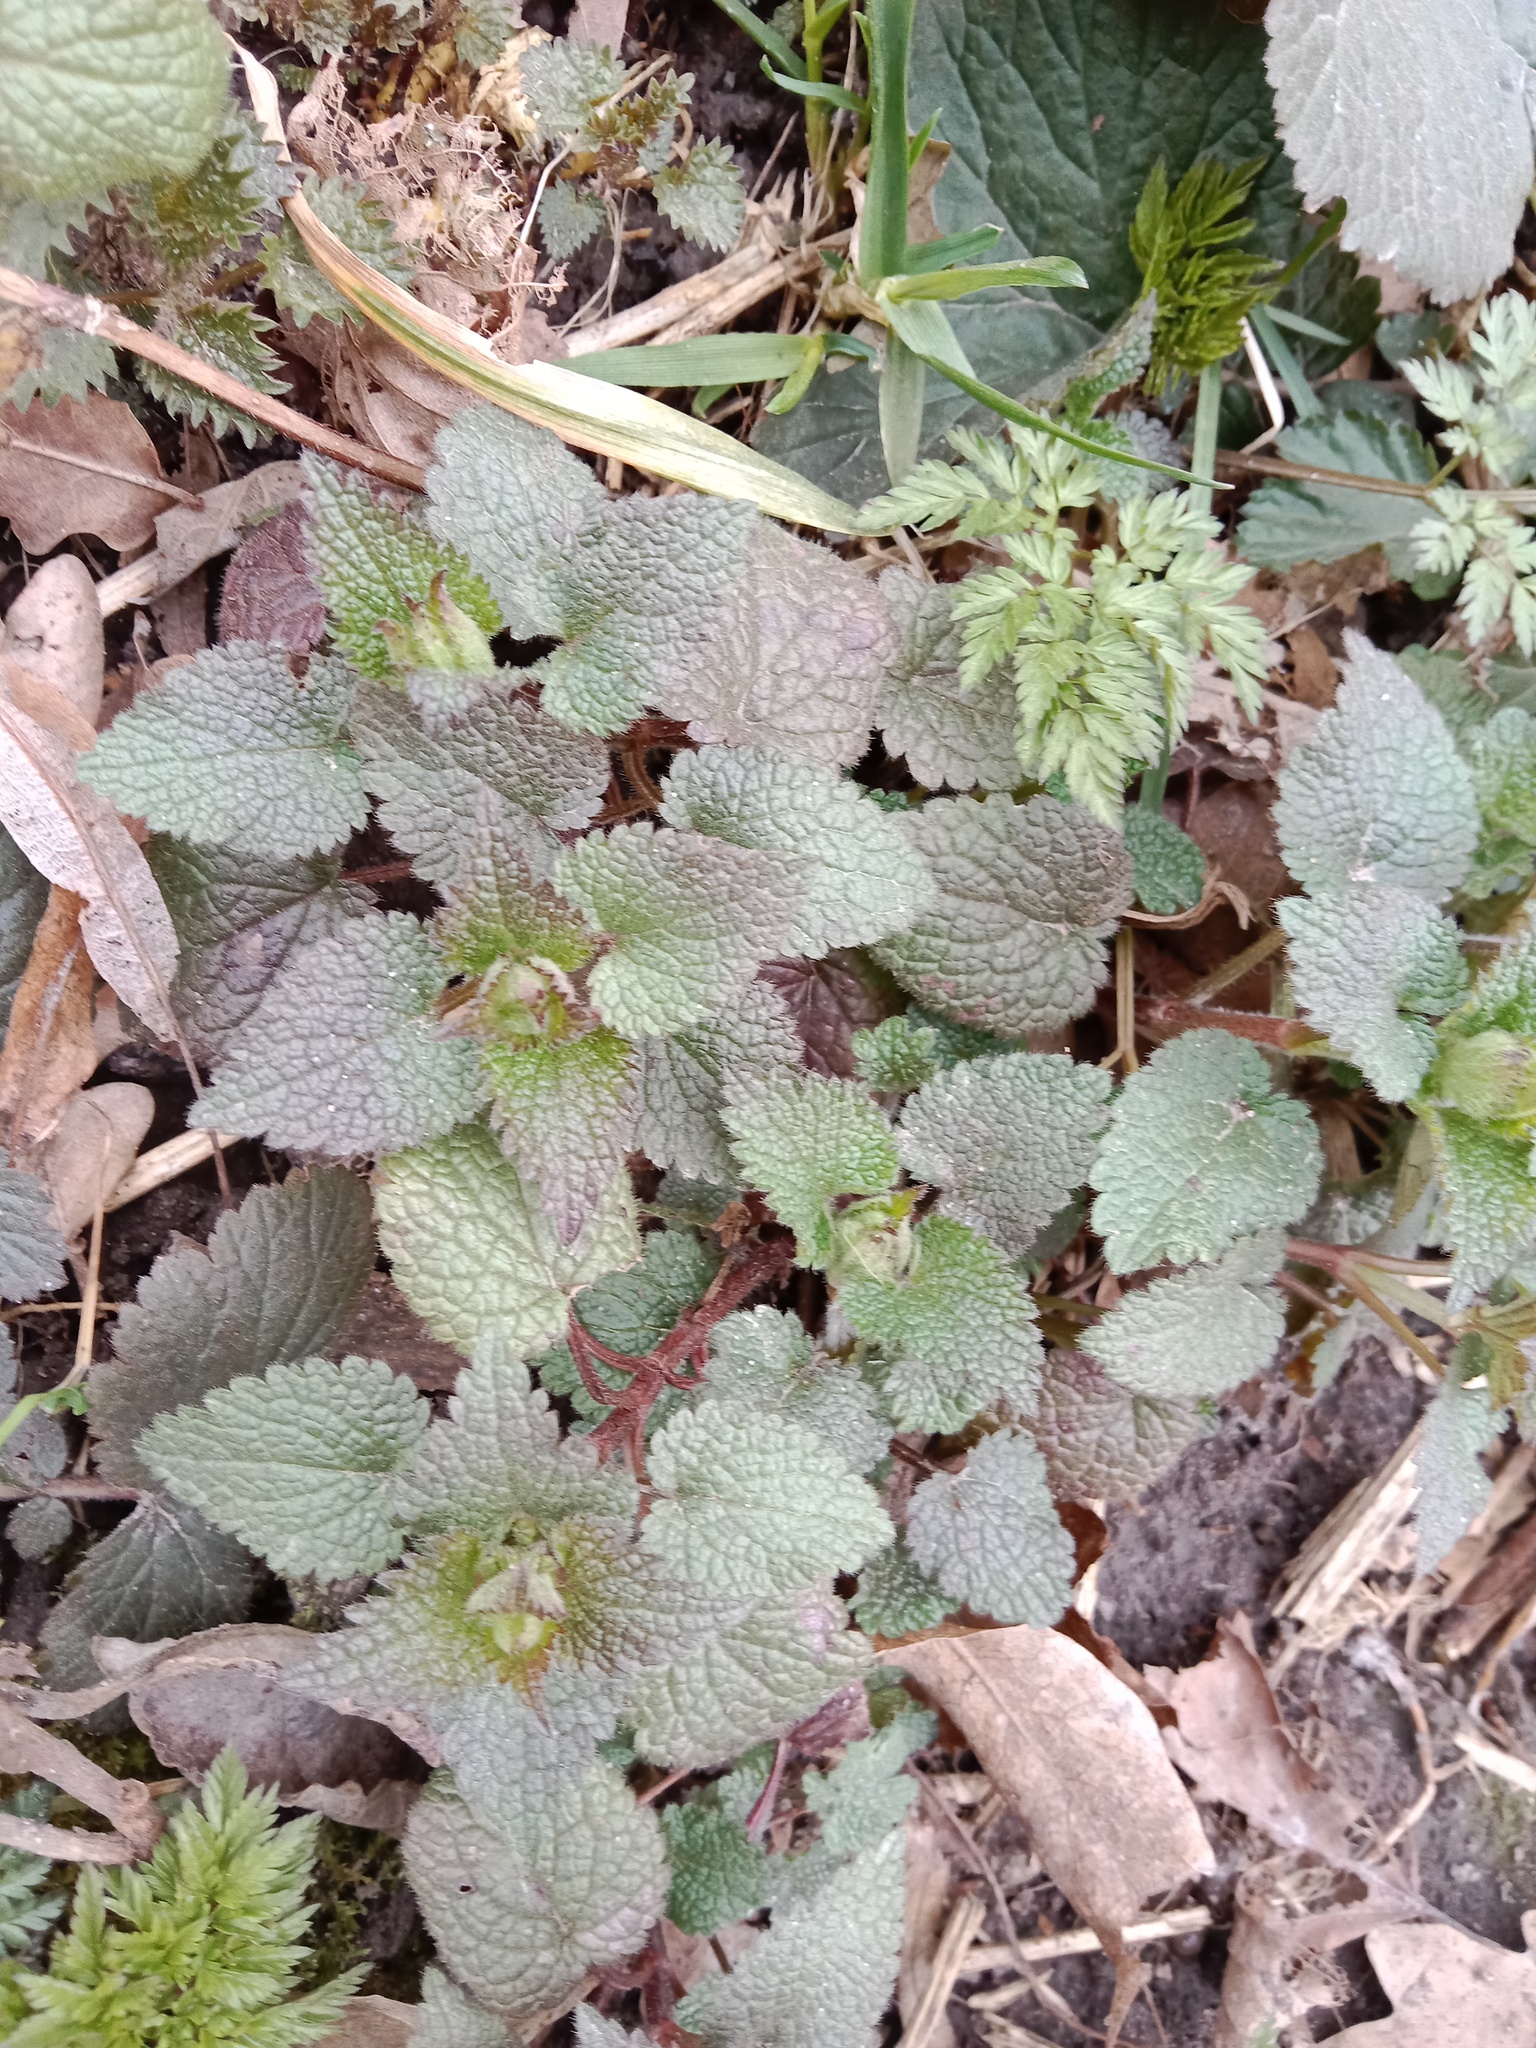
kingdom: Plantae
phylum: Tracheophyta
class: Magnoliopsida
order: Lamiales
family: Lamiaceae
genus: Lamium
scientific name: Lamium maculatum
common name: Spotted dead-nettle
